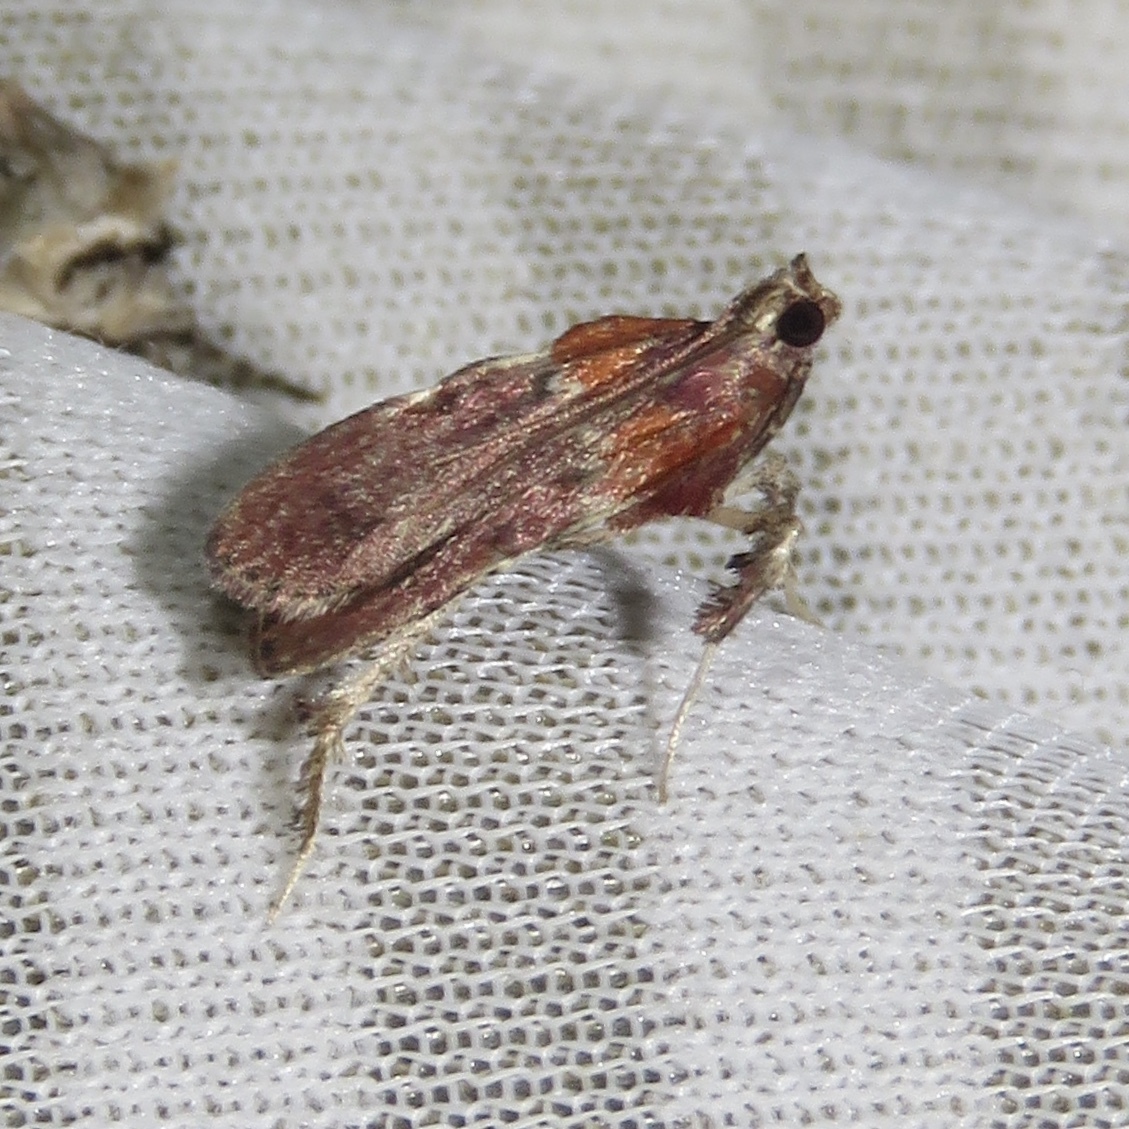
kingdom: Animalia
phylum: Arthropoda
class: Insecta
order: Lepidoptera
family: Pyralidae
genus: Galasa
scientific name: Galasa nigrinodis
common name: Boxwood leaftier moth
